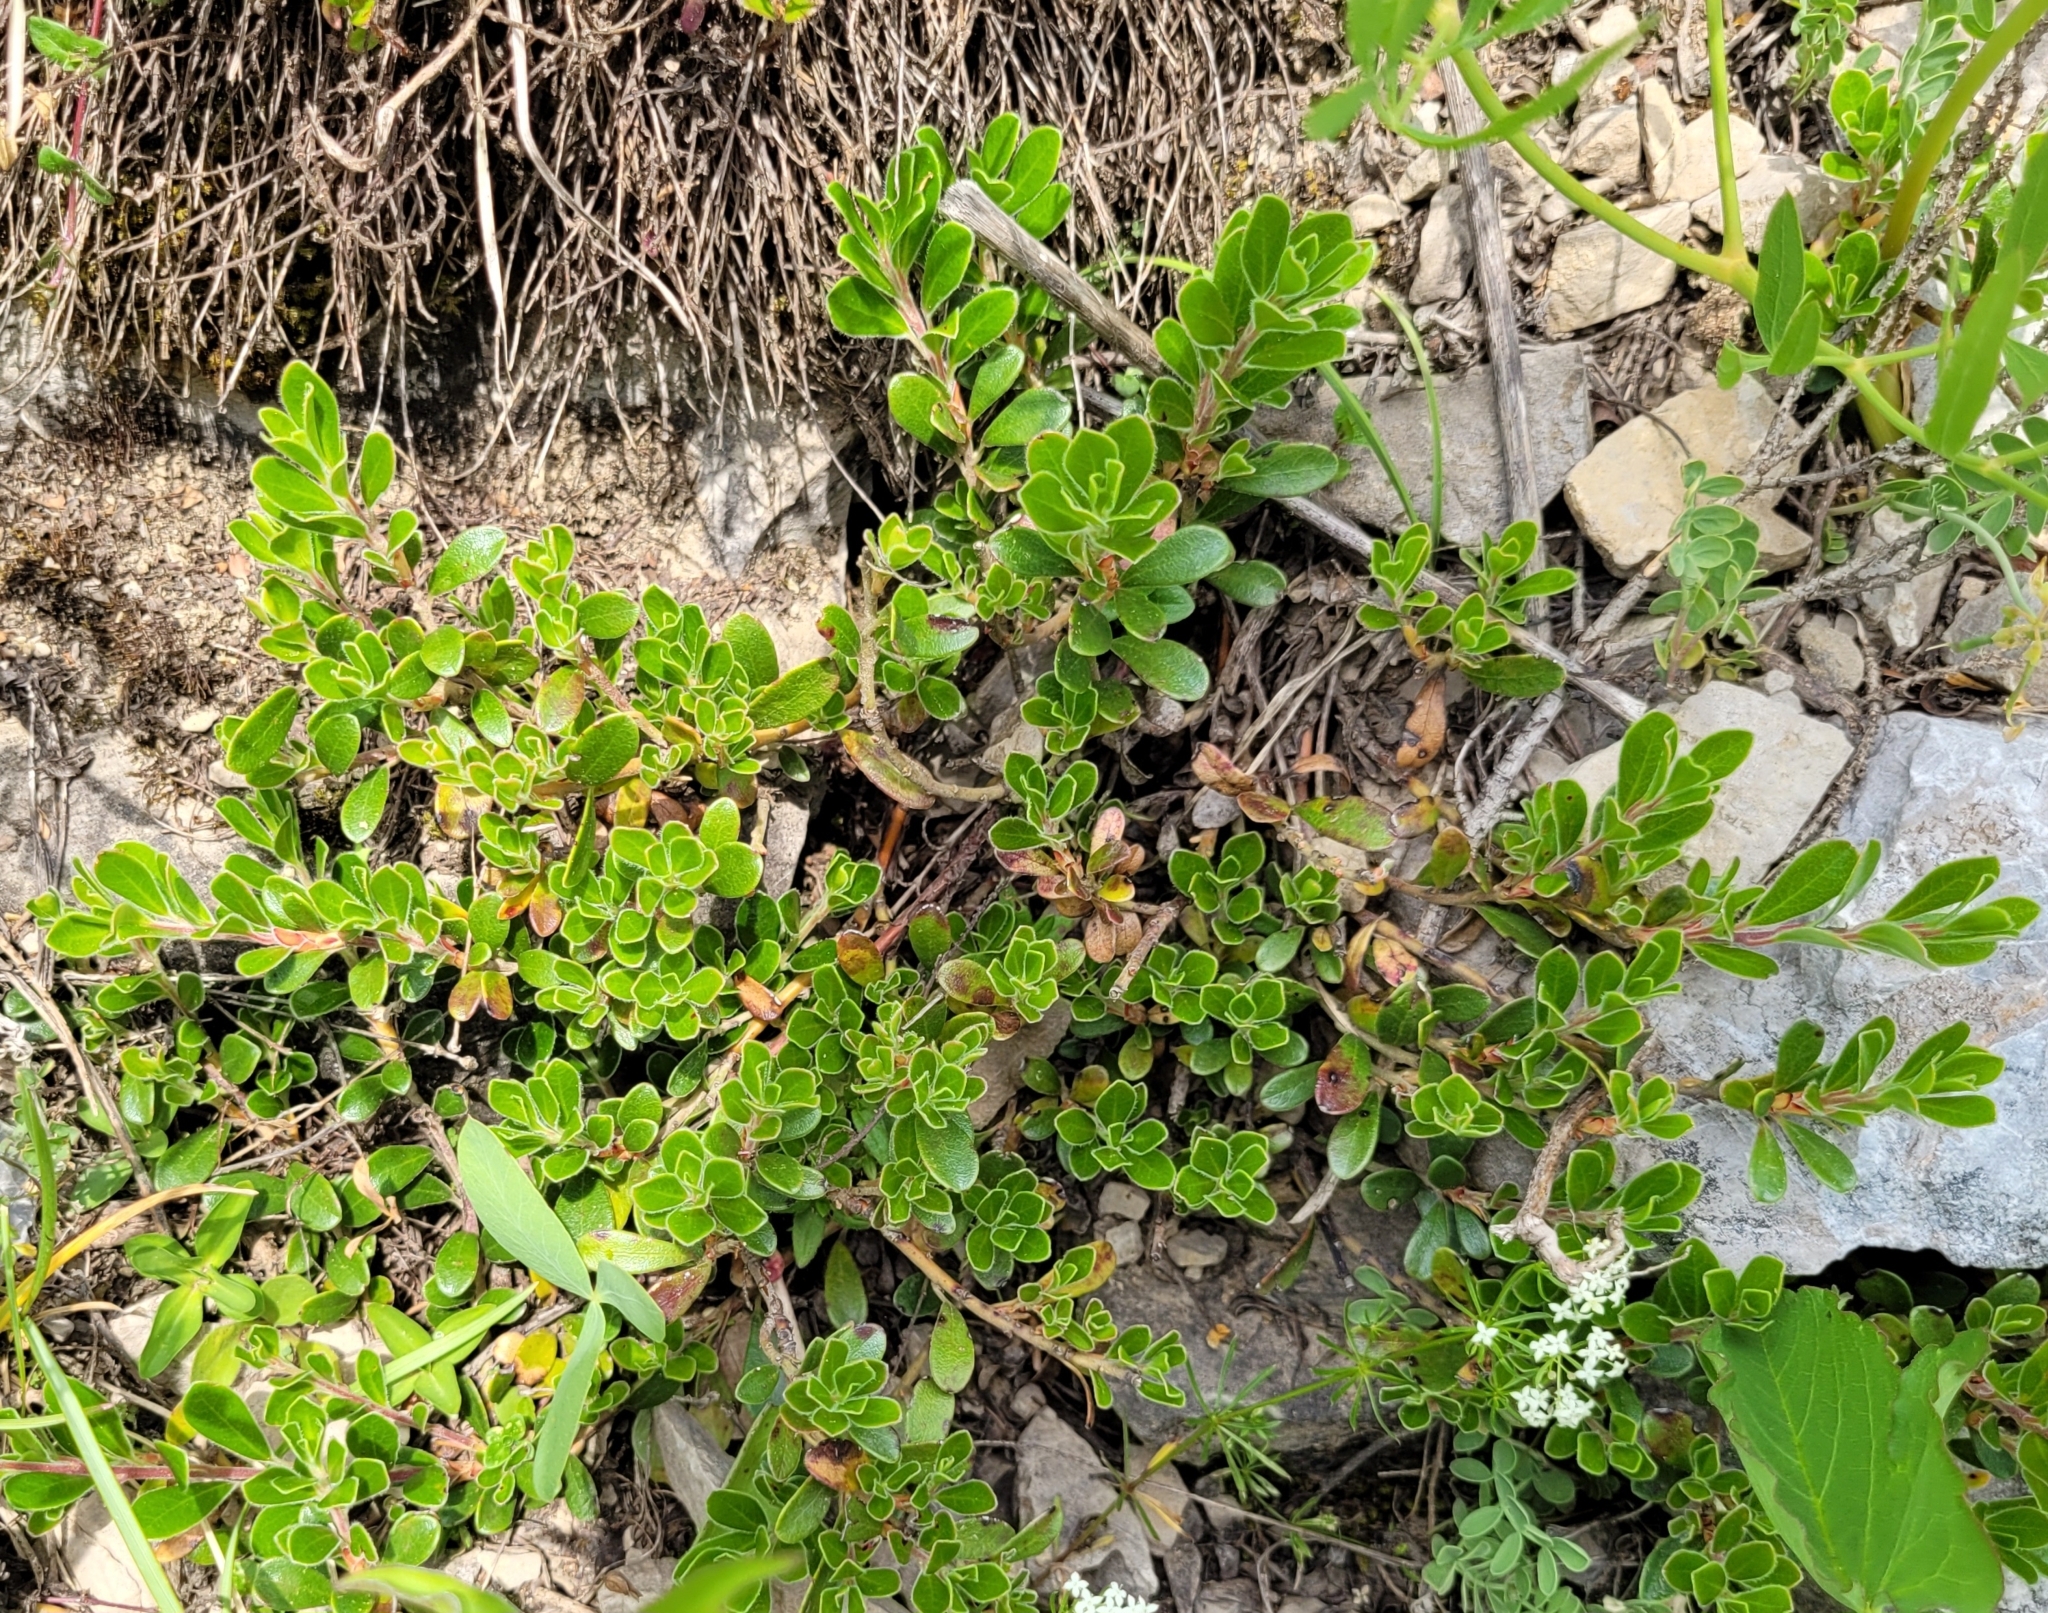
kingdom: Plantae
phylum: Tracheophyta
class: Magnoliopsida
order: Ericales
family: Ericaceae
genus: Arctostaphylos
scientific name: Arctostaphylos uva-ursi
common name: Bearberry
